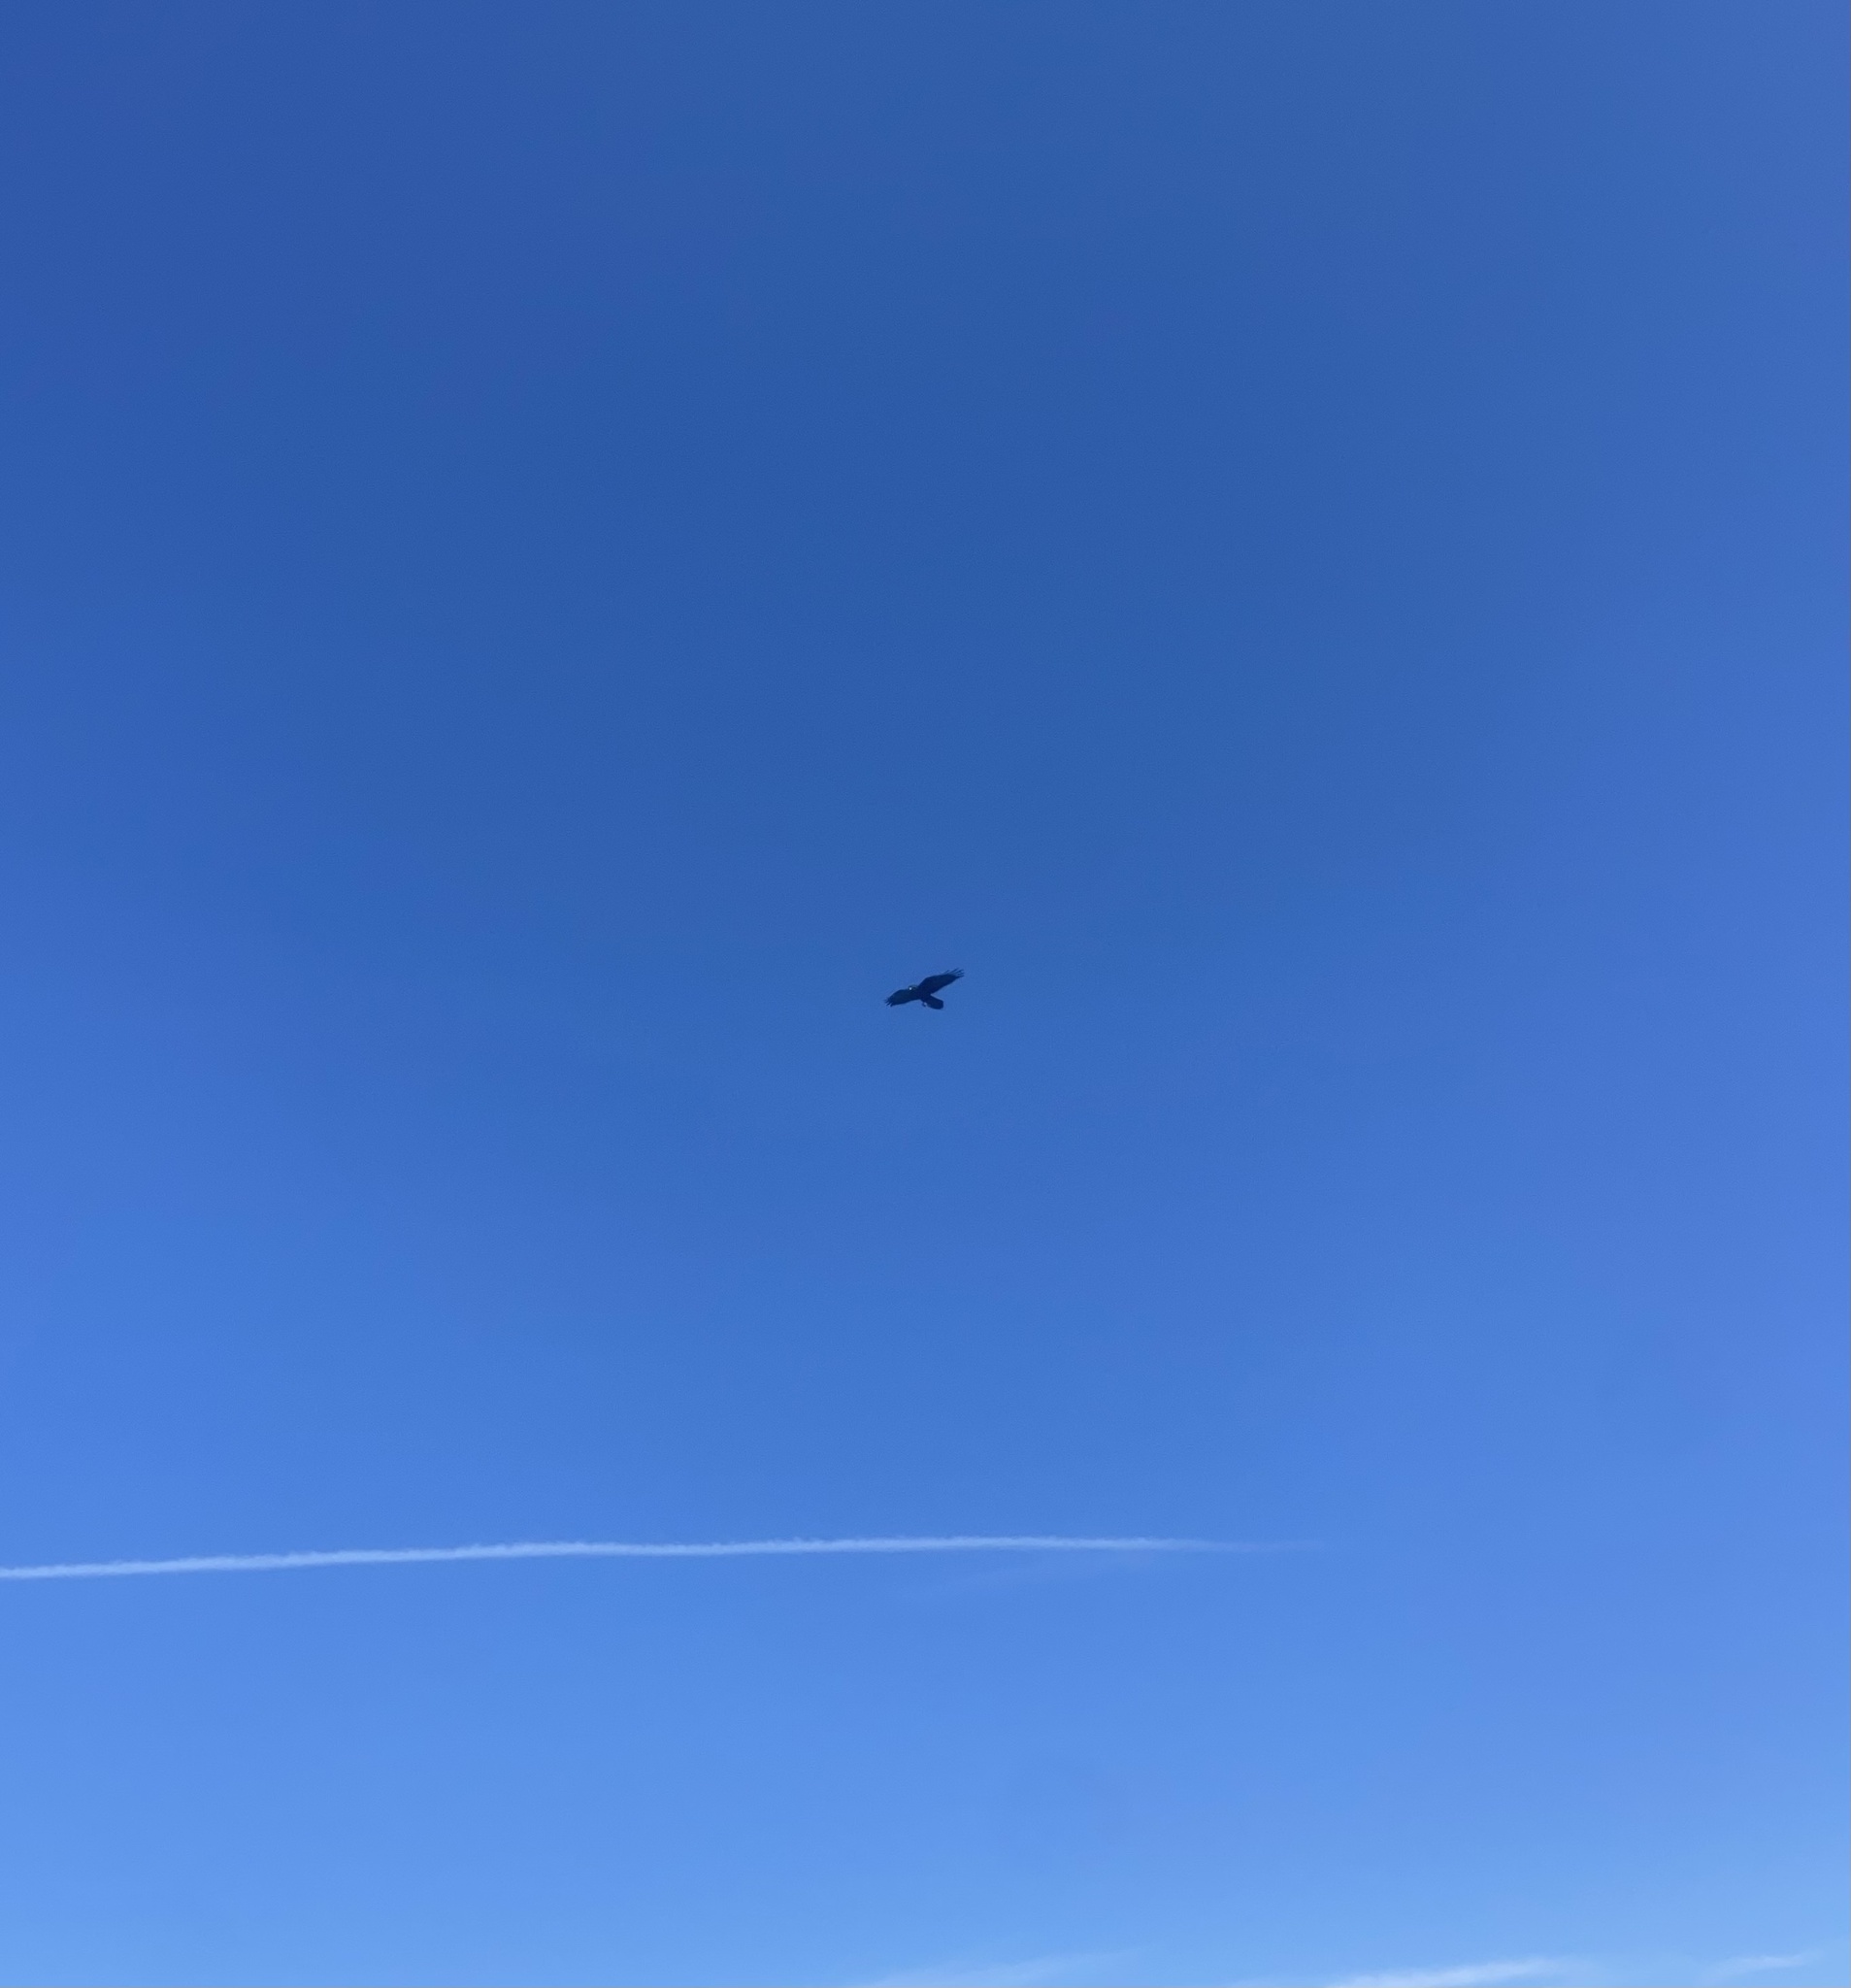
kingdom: Animalia
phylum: Chordata
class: Aves
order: Passeriformes
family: Corvidae
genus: Corvus
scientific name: Corvus corax
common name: Common raven
